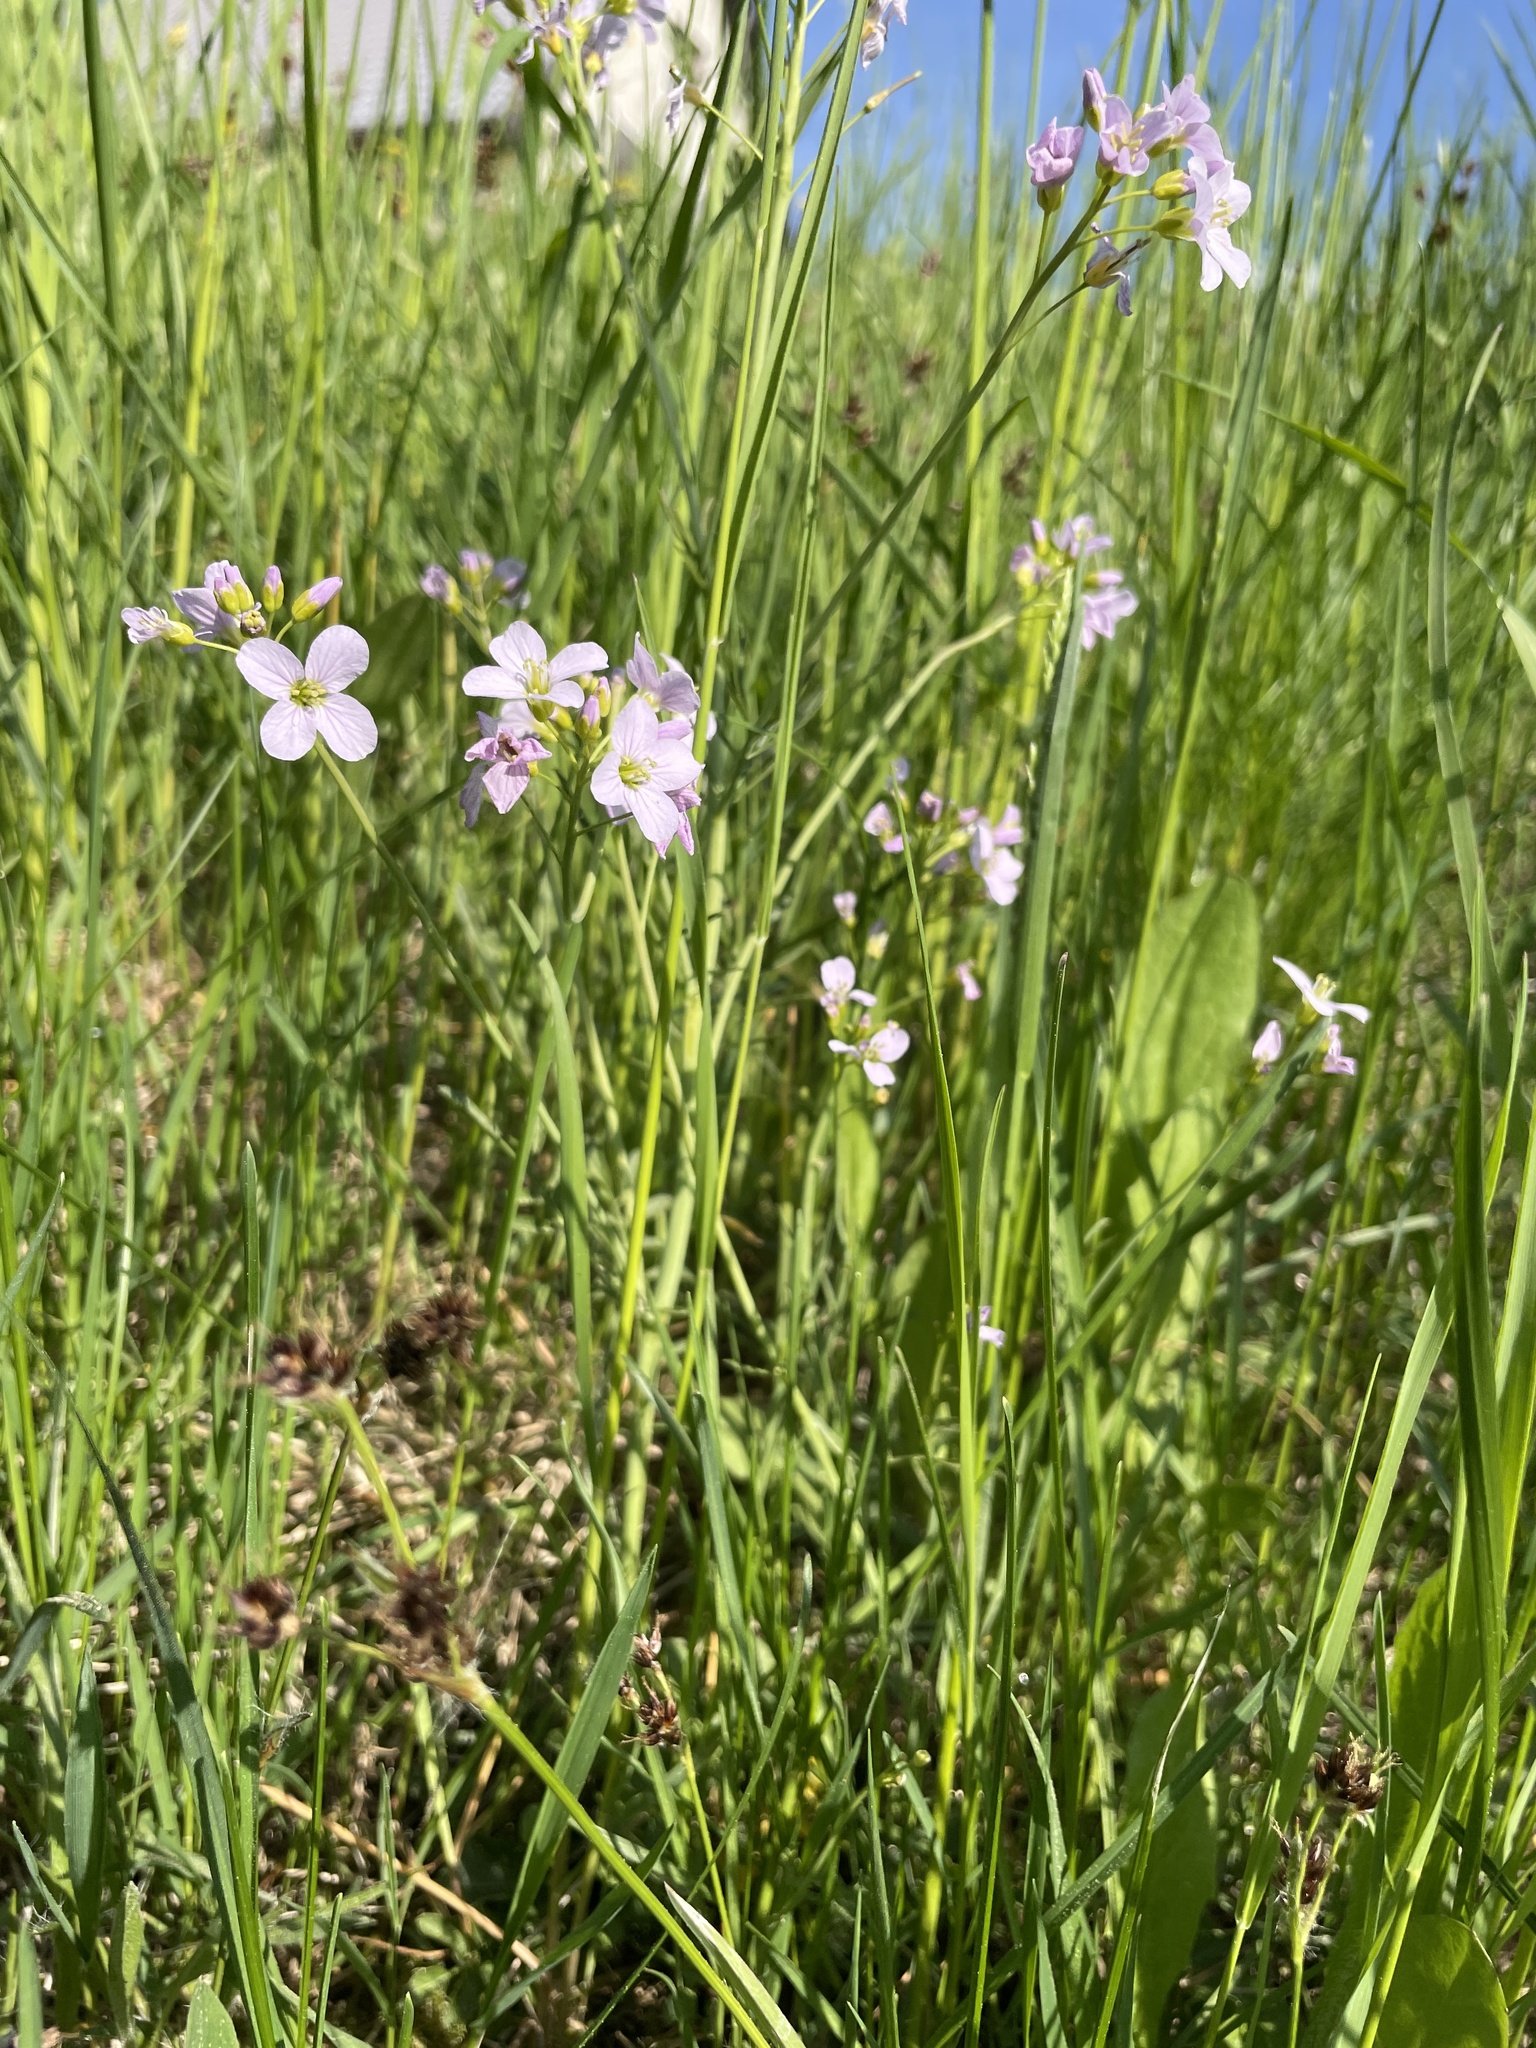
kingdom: Plantae
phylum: Tracheophyta
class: Magnoliopsida
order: Brassicales
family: Brassicaceae
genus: Cardamine
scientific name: Cardamine pratensis
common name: Cuckoo flower
